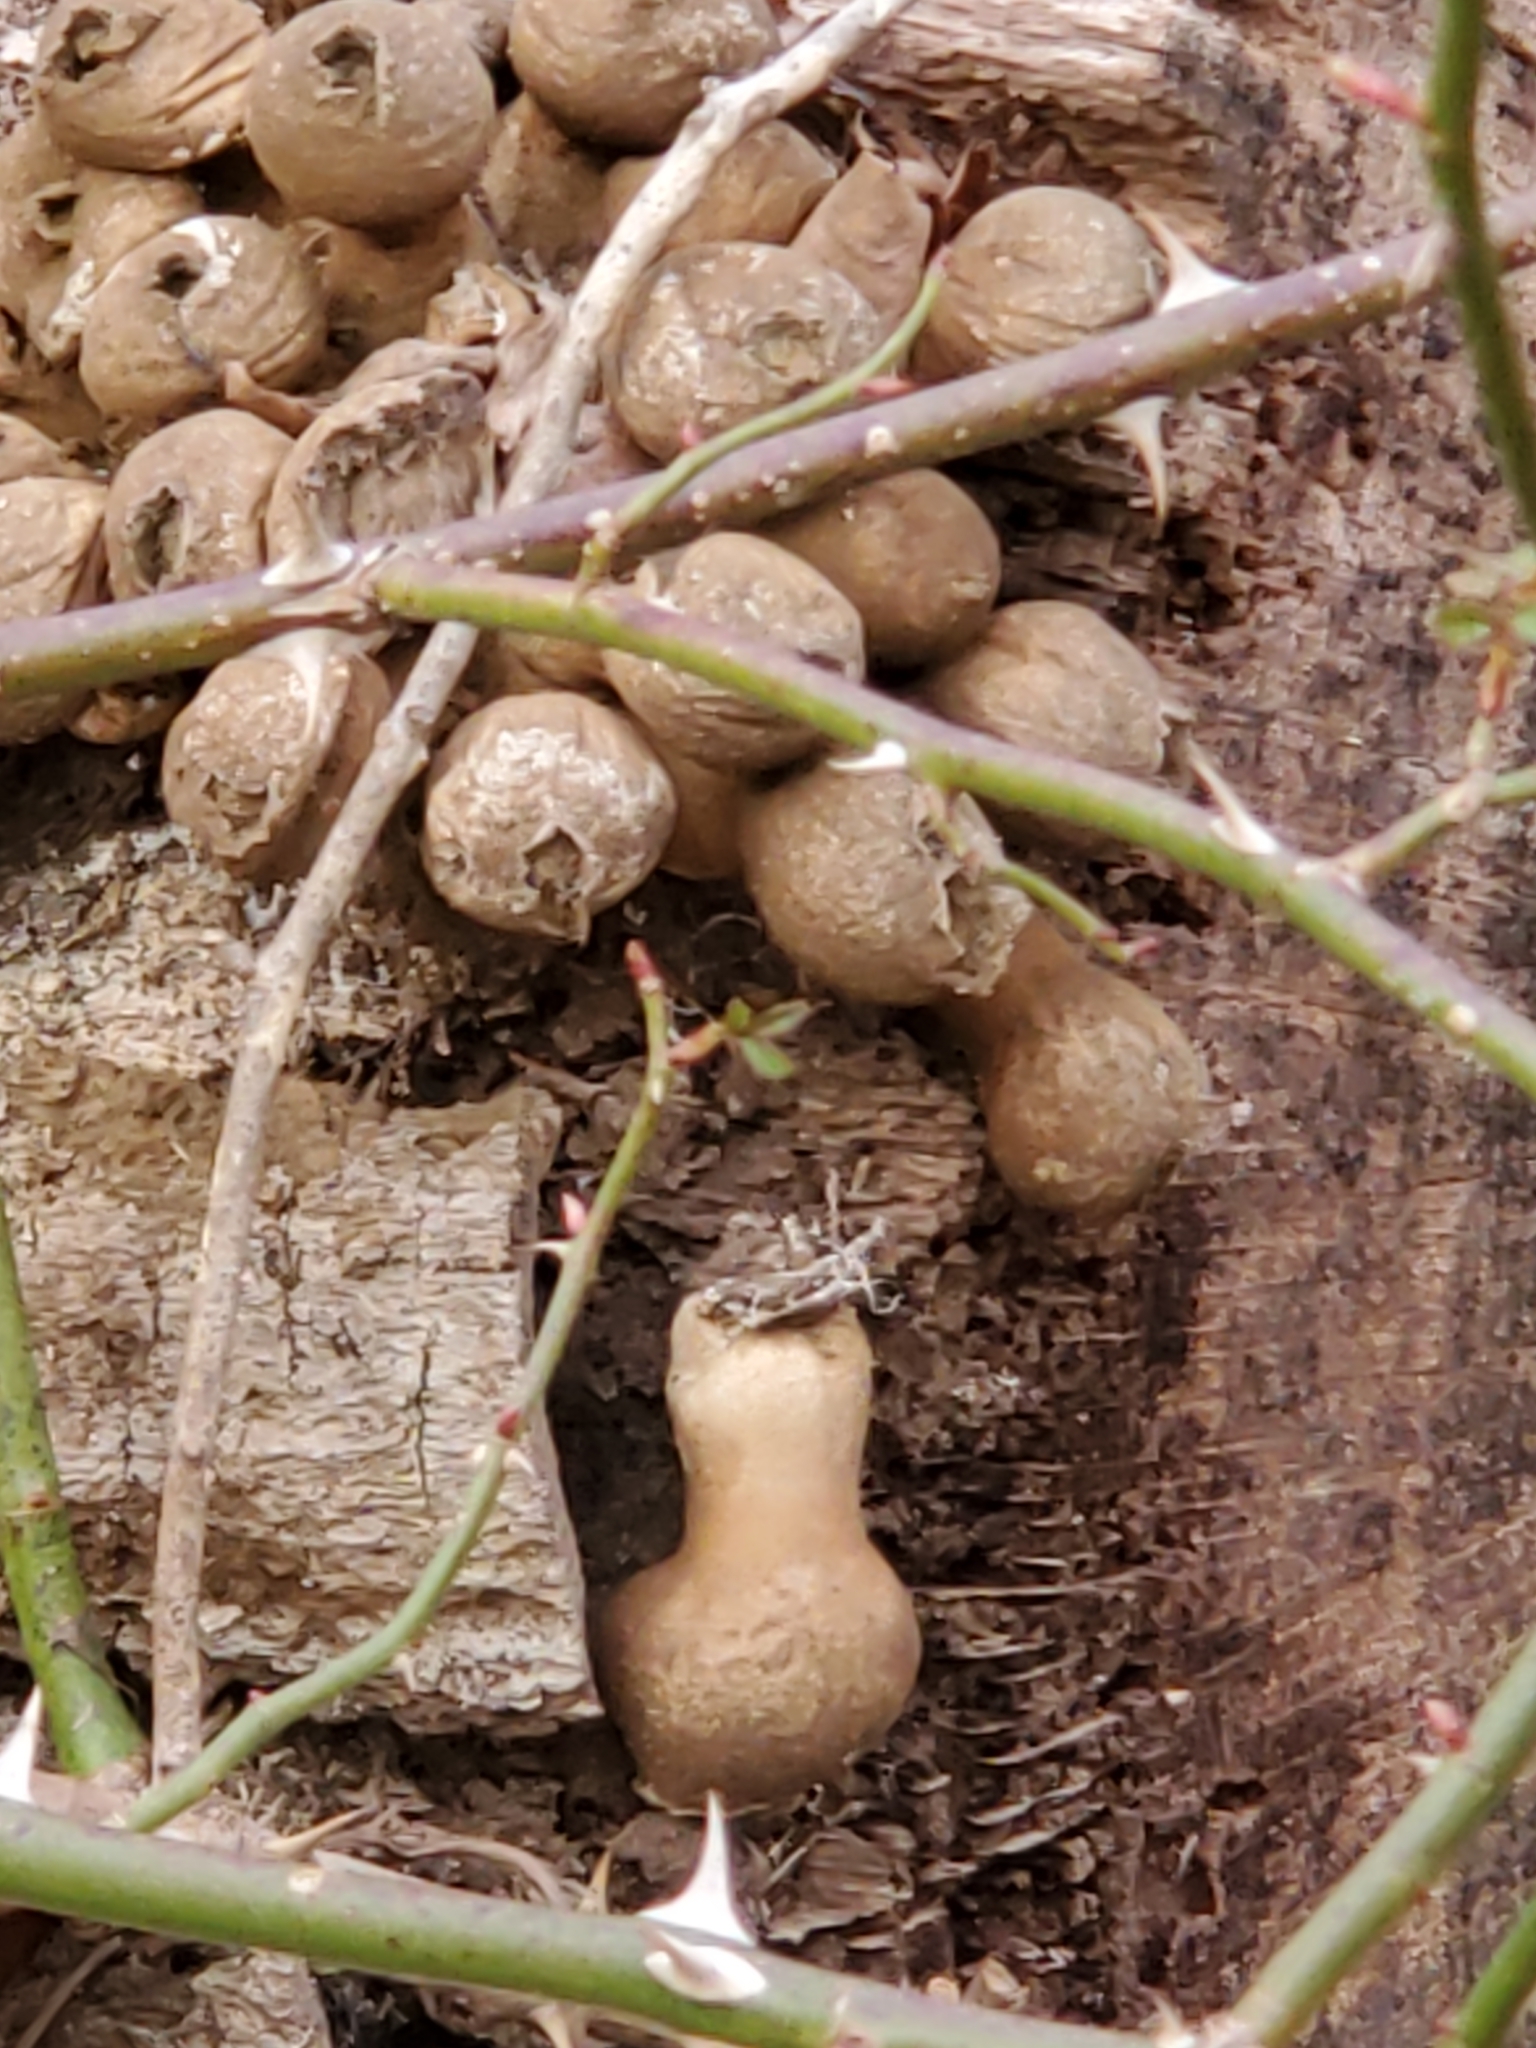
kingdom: Fungi
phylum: Basidiomycota
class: Agaricomycetes
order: Agaricales
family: Lycoperdaceae
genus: Apioperdon
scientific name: Apioperdon pyriforme
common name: Pear-shaped puffball
